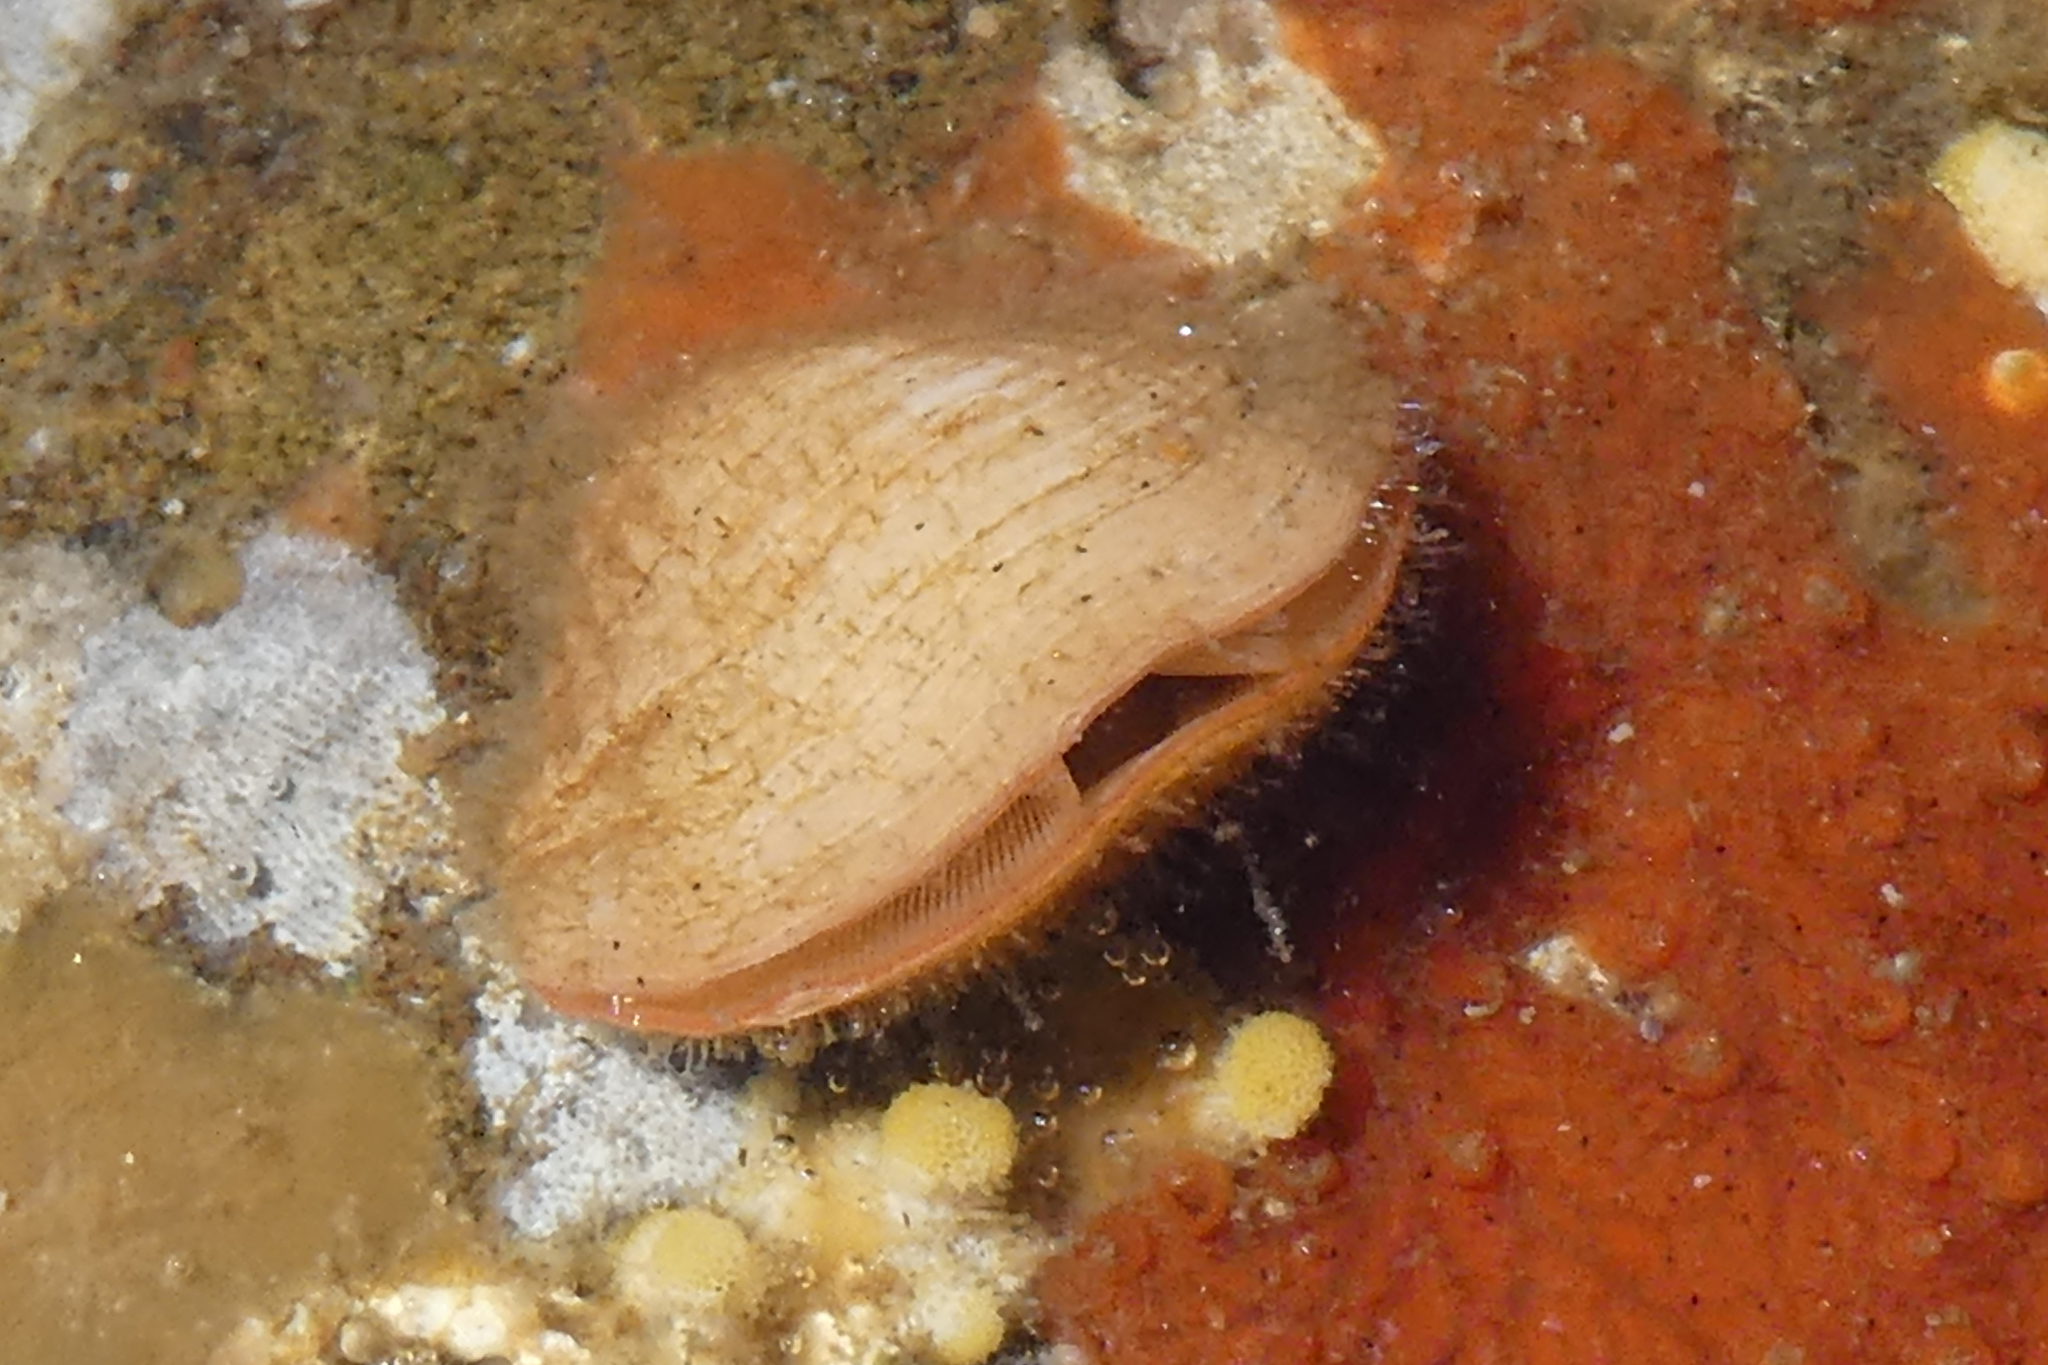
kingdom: Animalia
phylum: Brachiopoda
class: Rhynchonellata
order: Terebratulida
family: Terebrataliidae
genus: Terebratalia
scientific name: Terebratalia transversa
